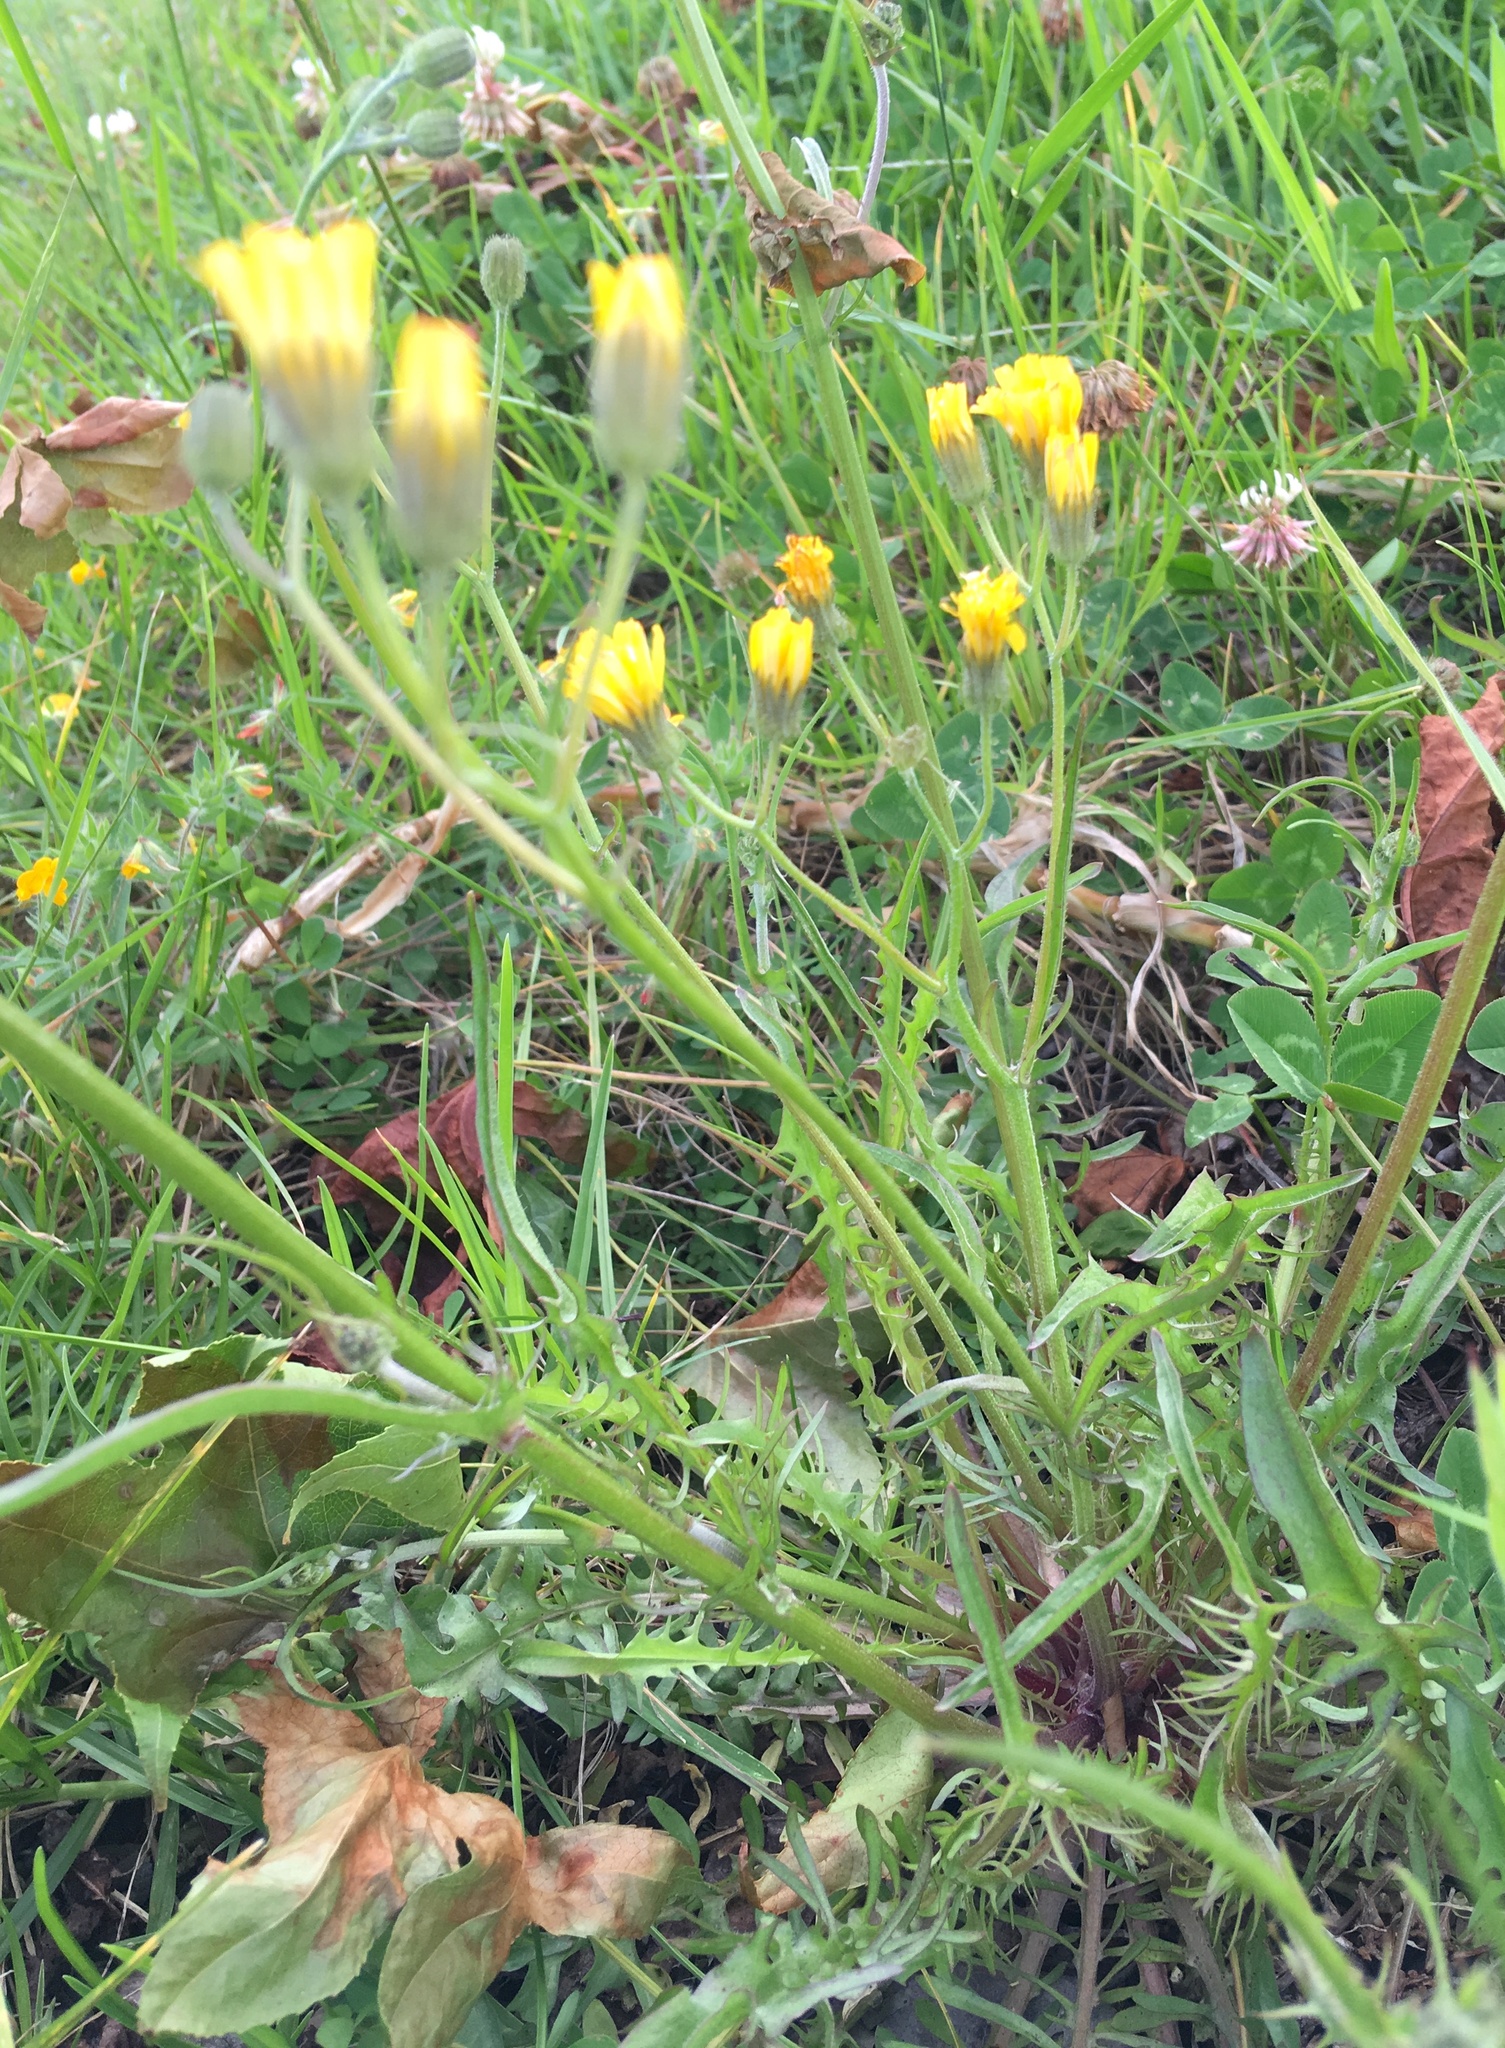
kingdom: Plantae
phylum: Tracheophyta
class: Magnoliopsida
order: Asterales
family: Asteraceae
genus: Crepis
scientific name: Crepis capillaris
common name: Smooth hawksbeard
